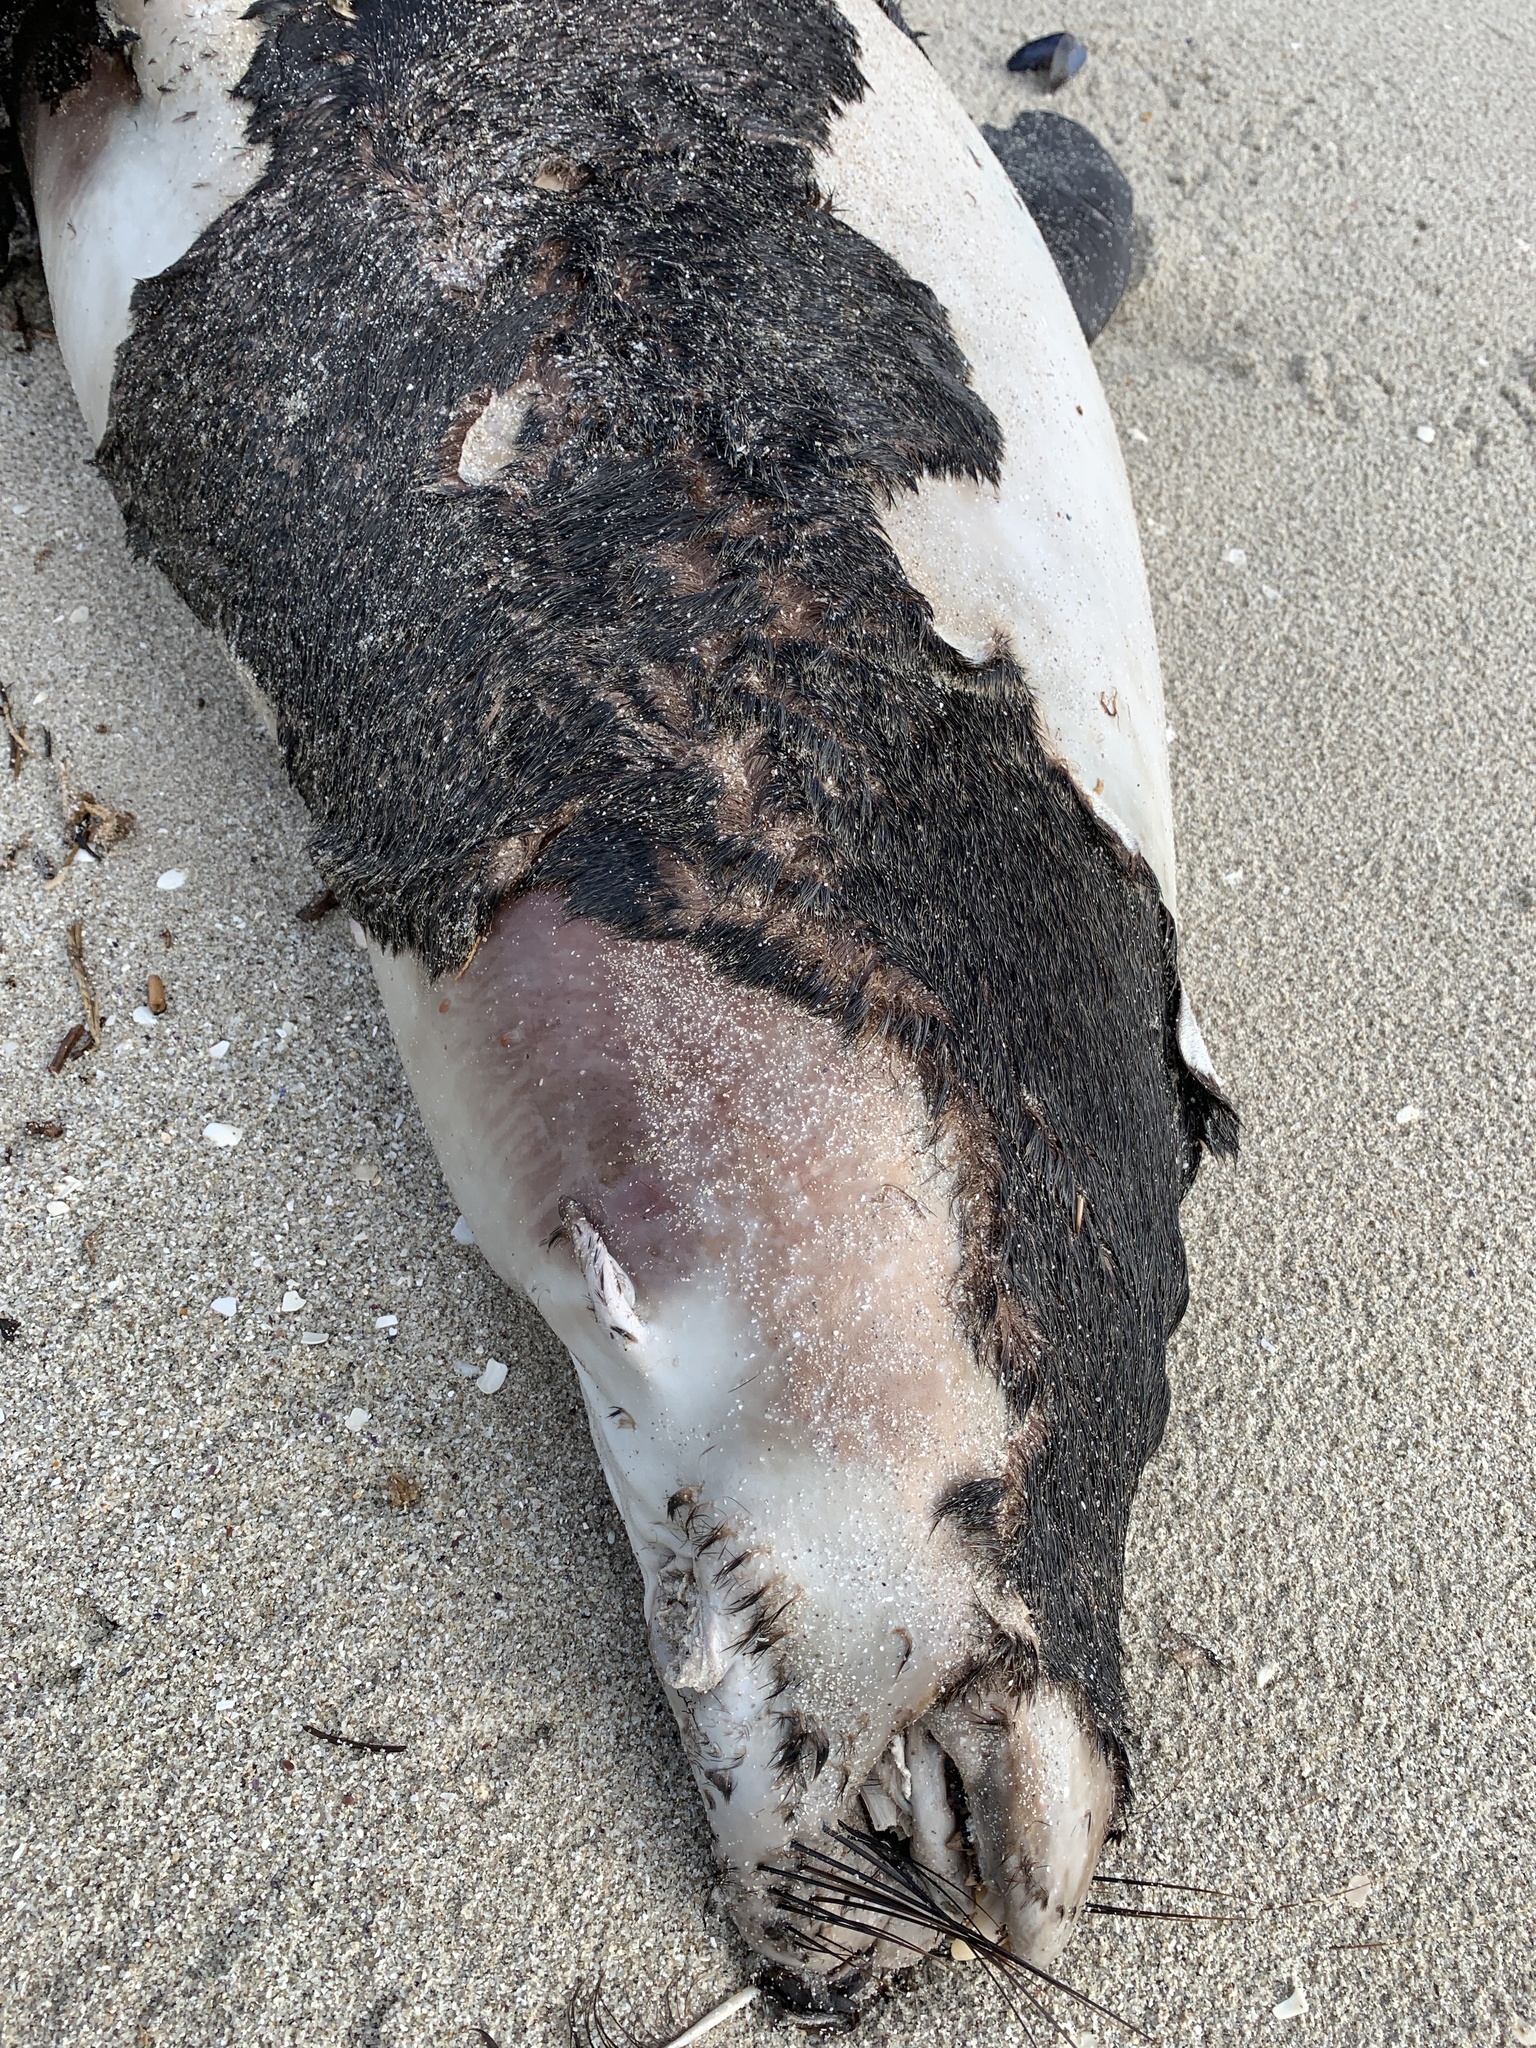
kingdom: Animalia
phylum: Chordata
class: Mammalia
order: Carnivora
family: Otariidae
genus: Arctocephalus
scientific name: Arctocephalus pusillus
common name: Brown fur seal
